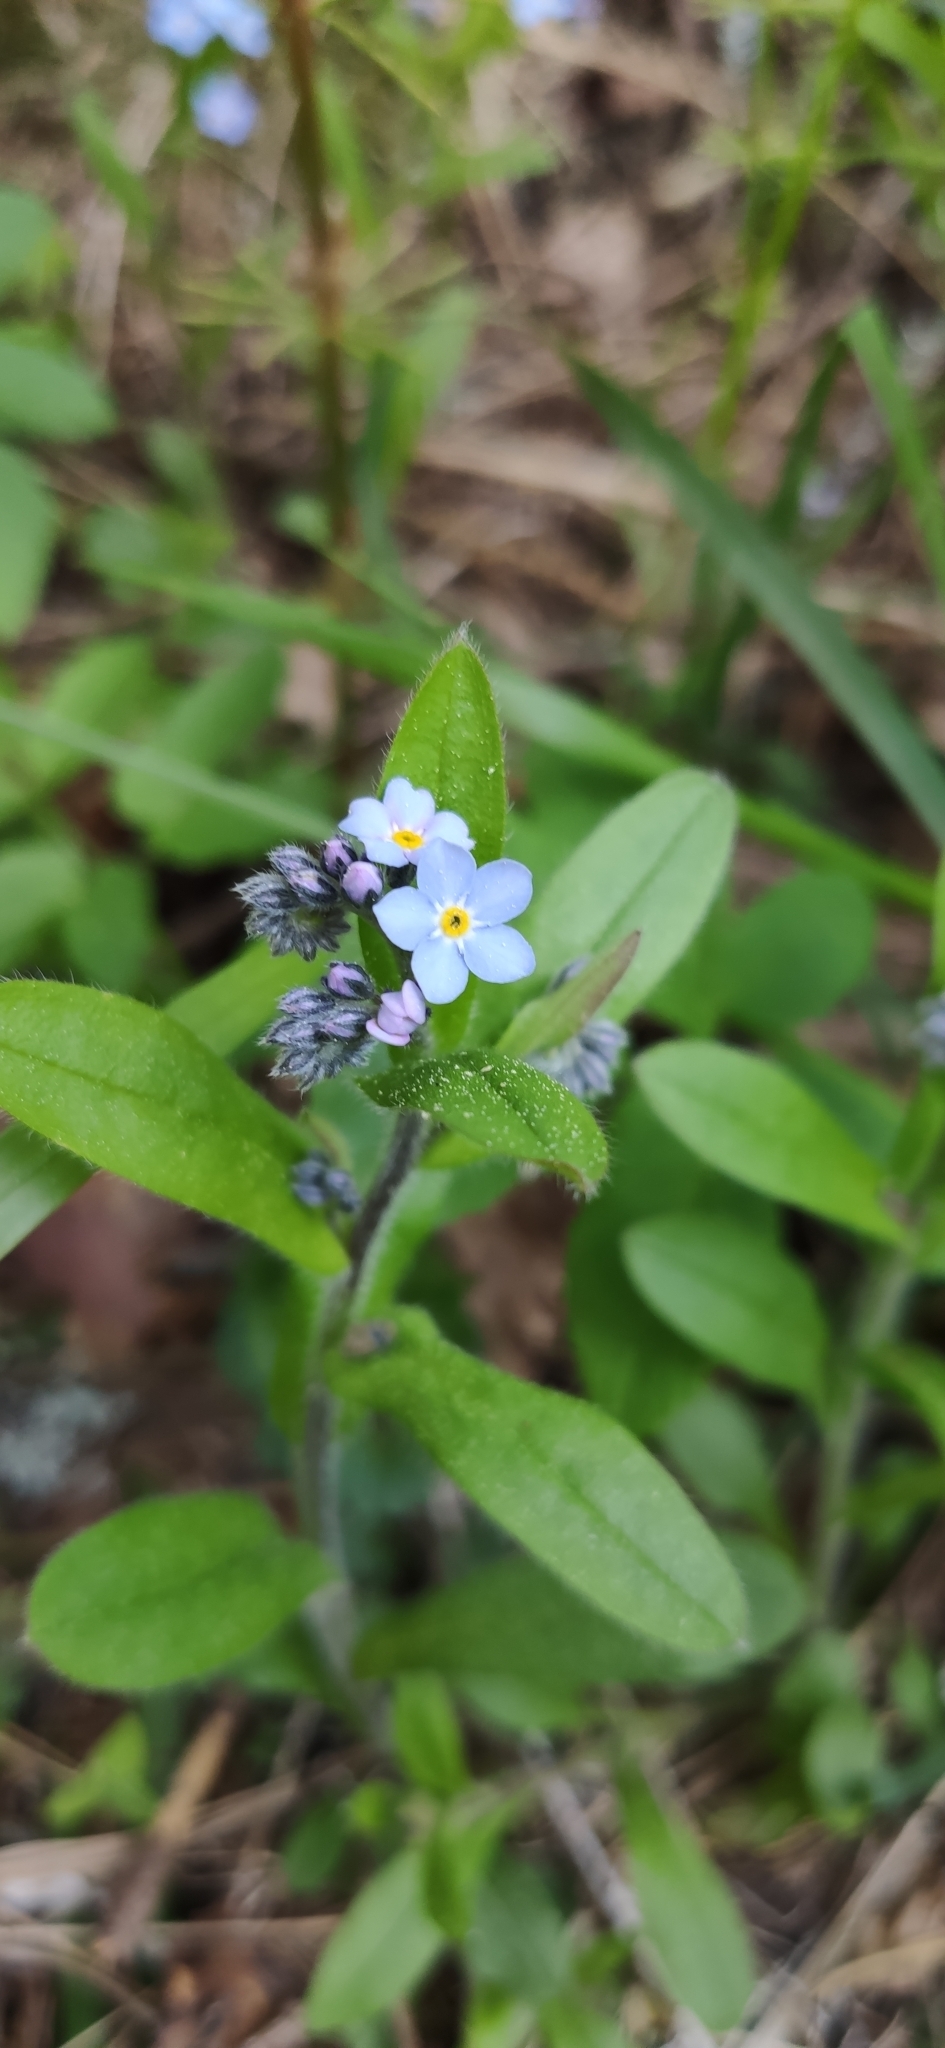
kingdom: Plantae
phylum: Tracheophyta
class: Magnoliopsida
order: Boraginales
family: Boraginaceae
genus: Myosotis
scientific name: Myosotis sylvatica
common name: Wood forget-me-not
